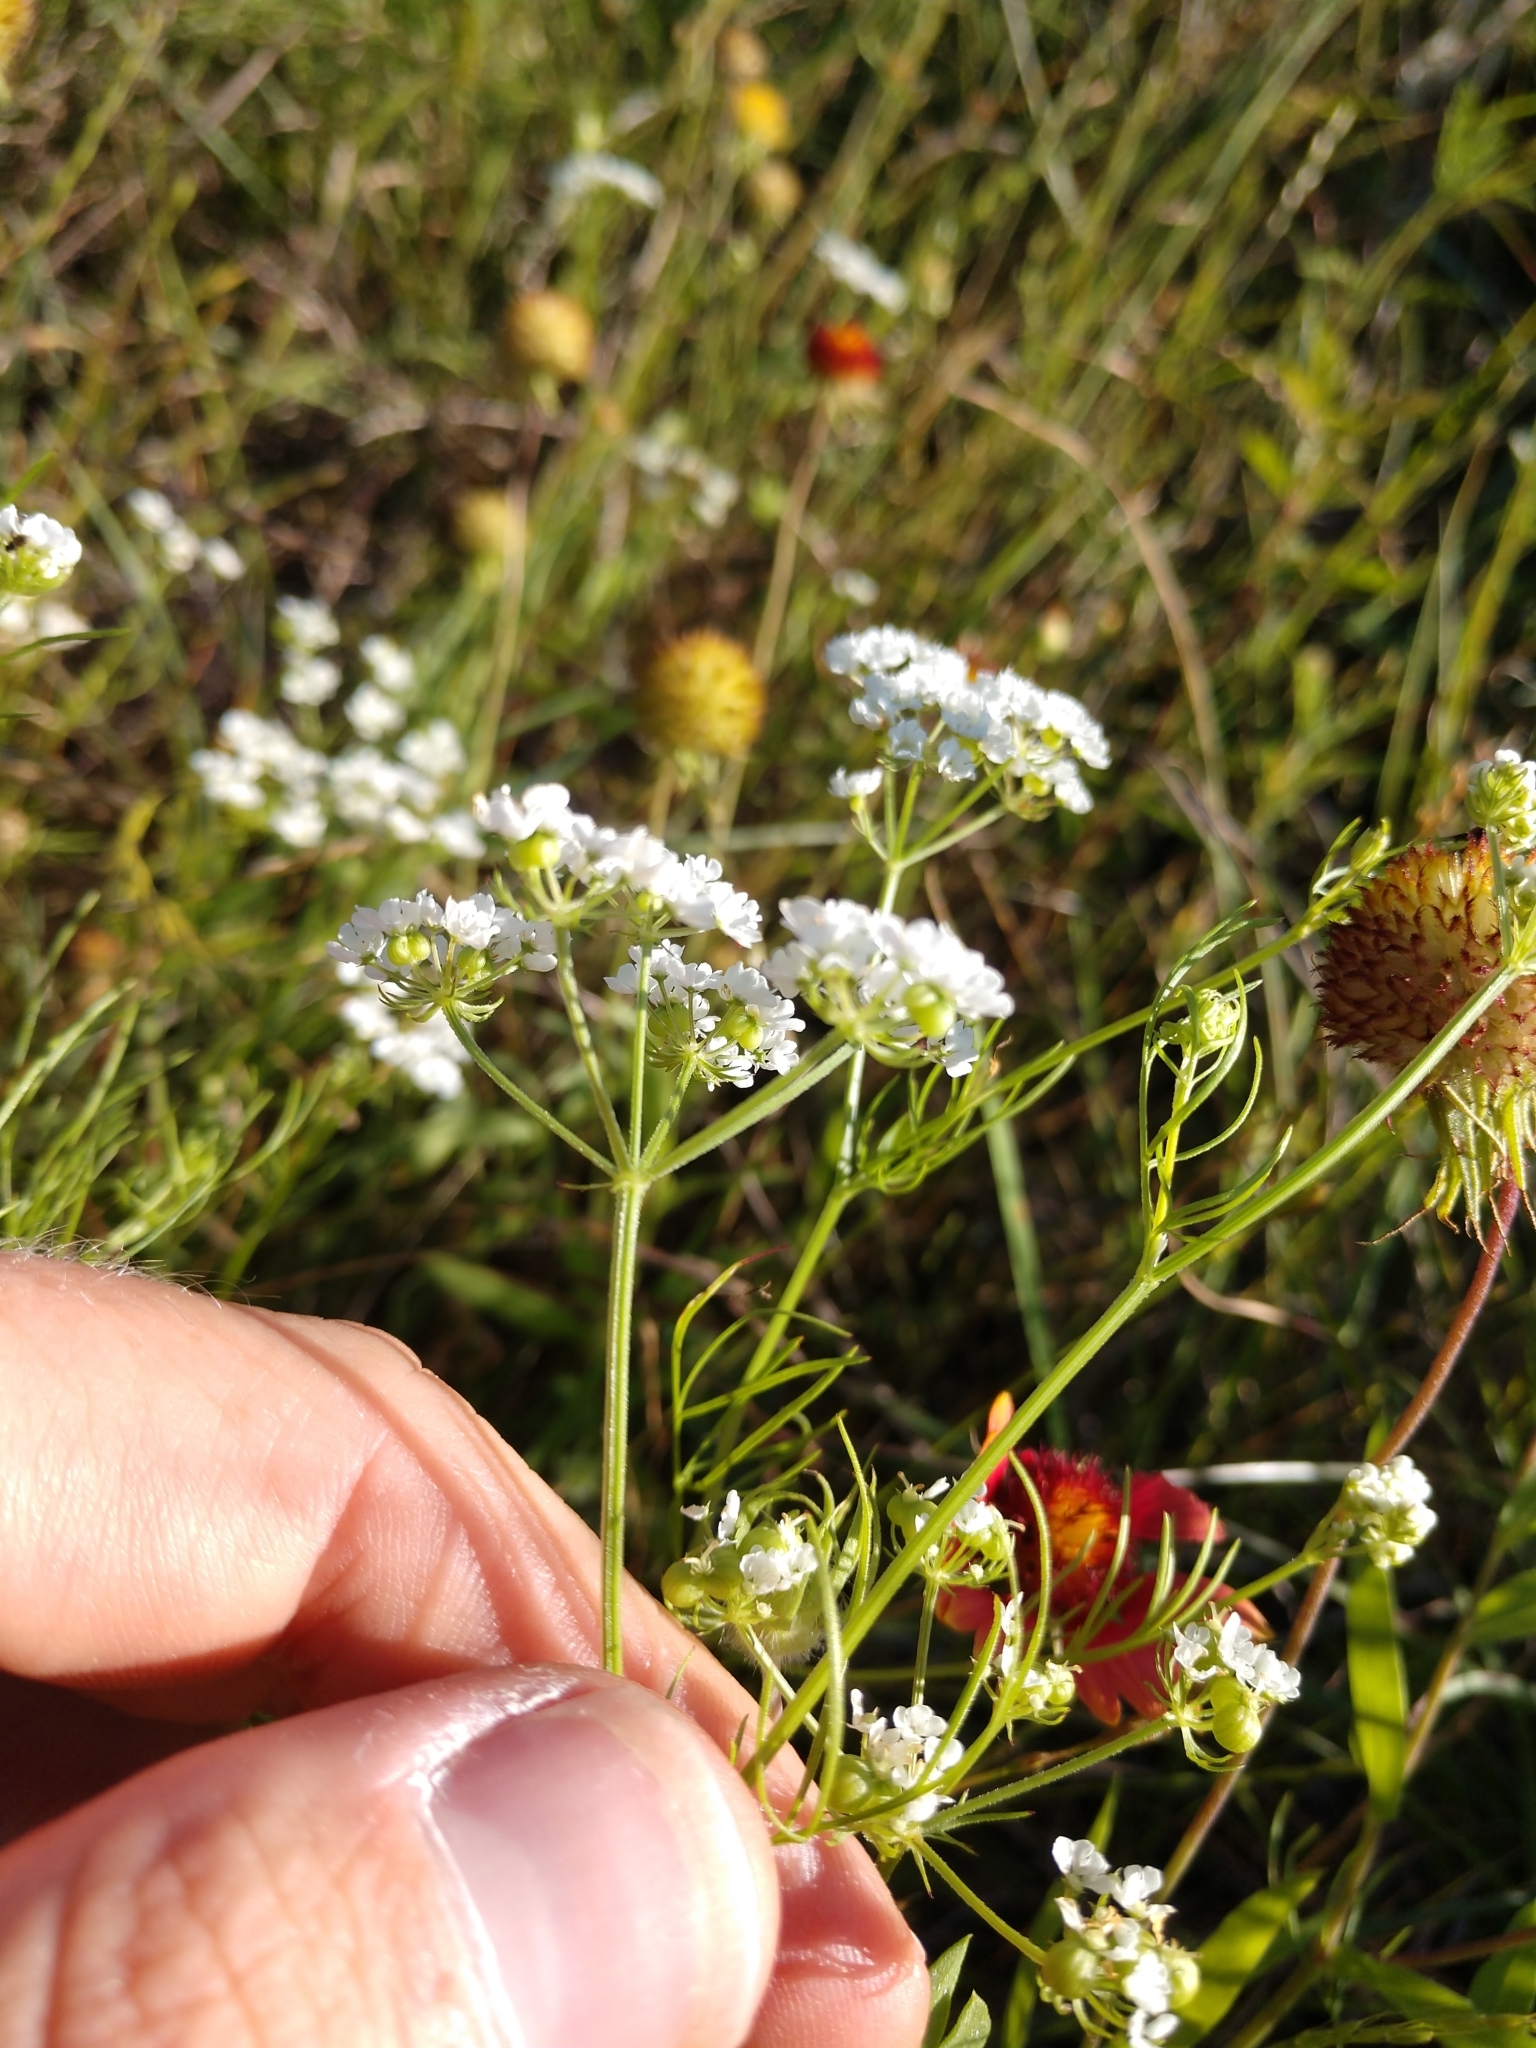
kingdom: Plantae
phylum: Tracheophyta
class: Magnoliopsida
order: Apiales
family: Apiaceae
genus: Atrema
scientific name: Atrema americanum
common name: Prairie-bishop
